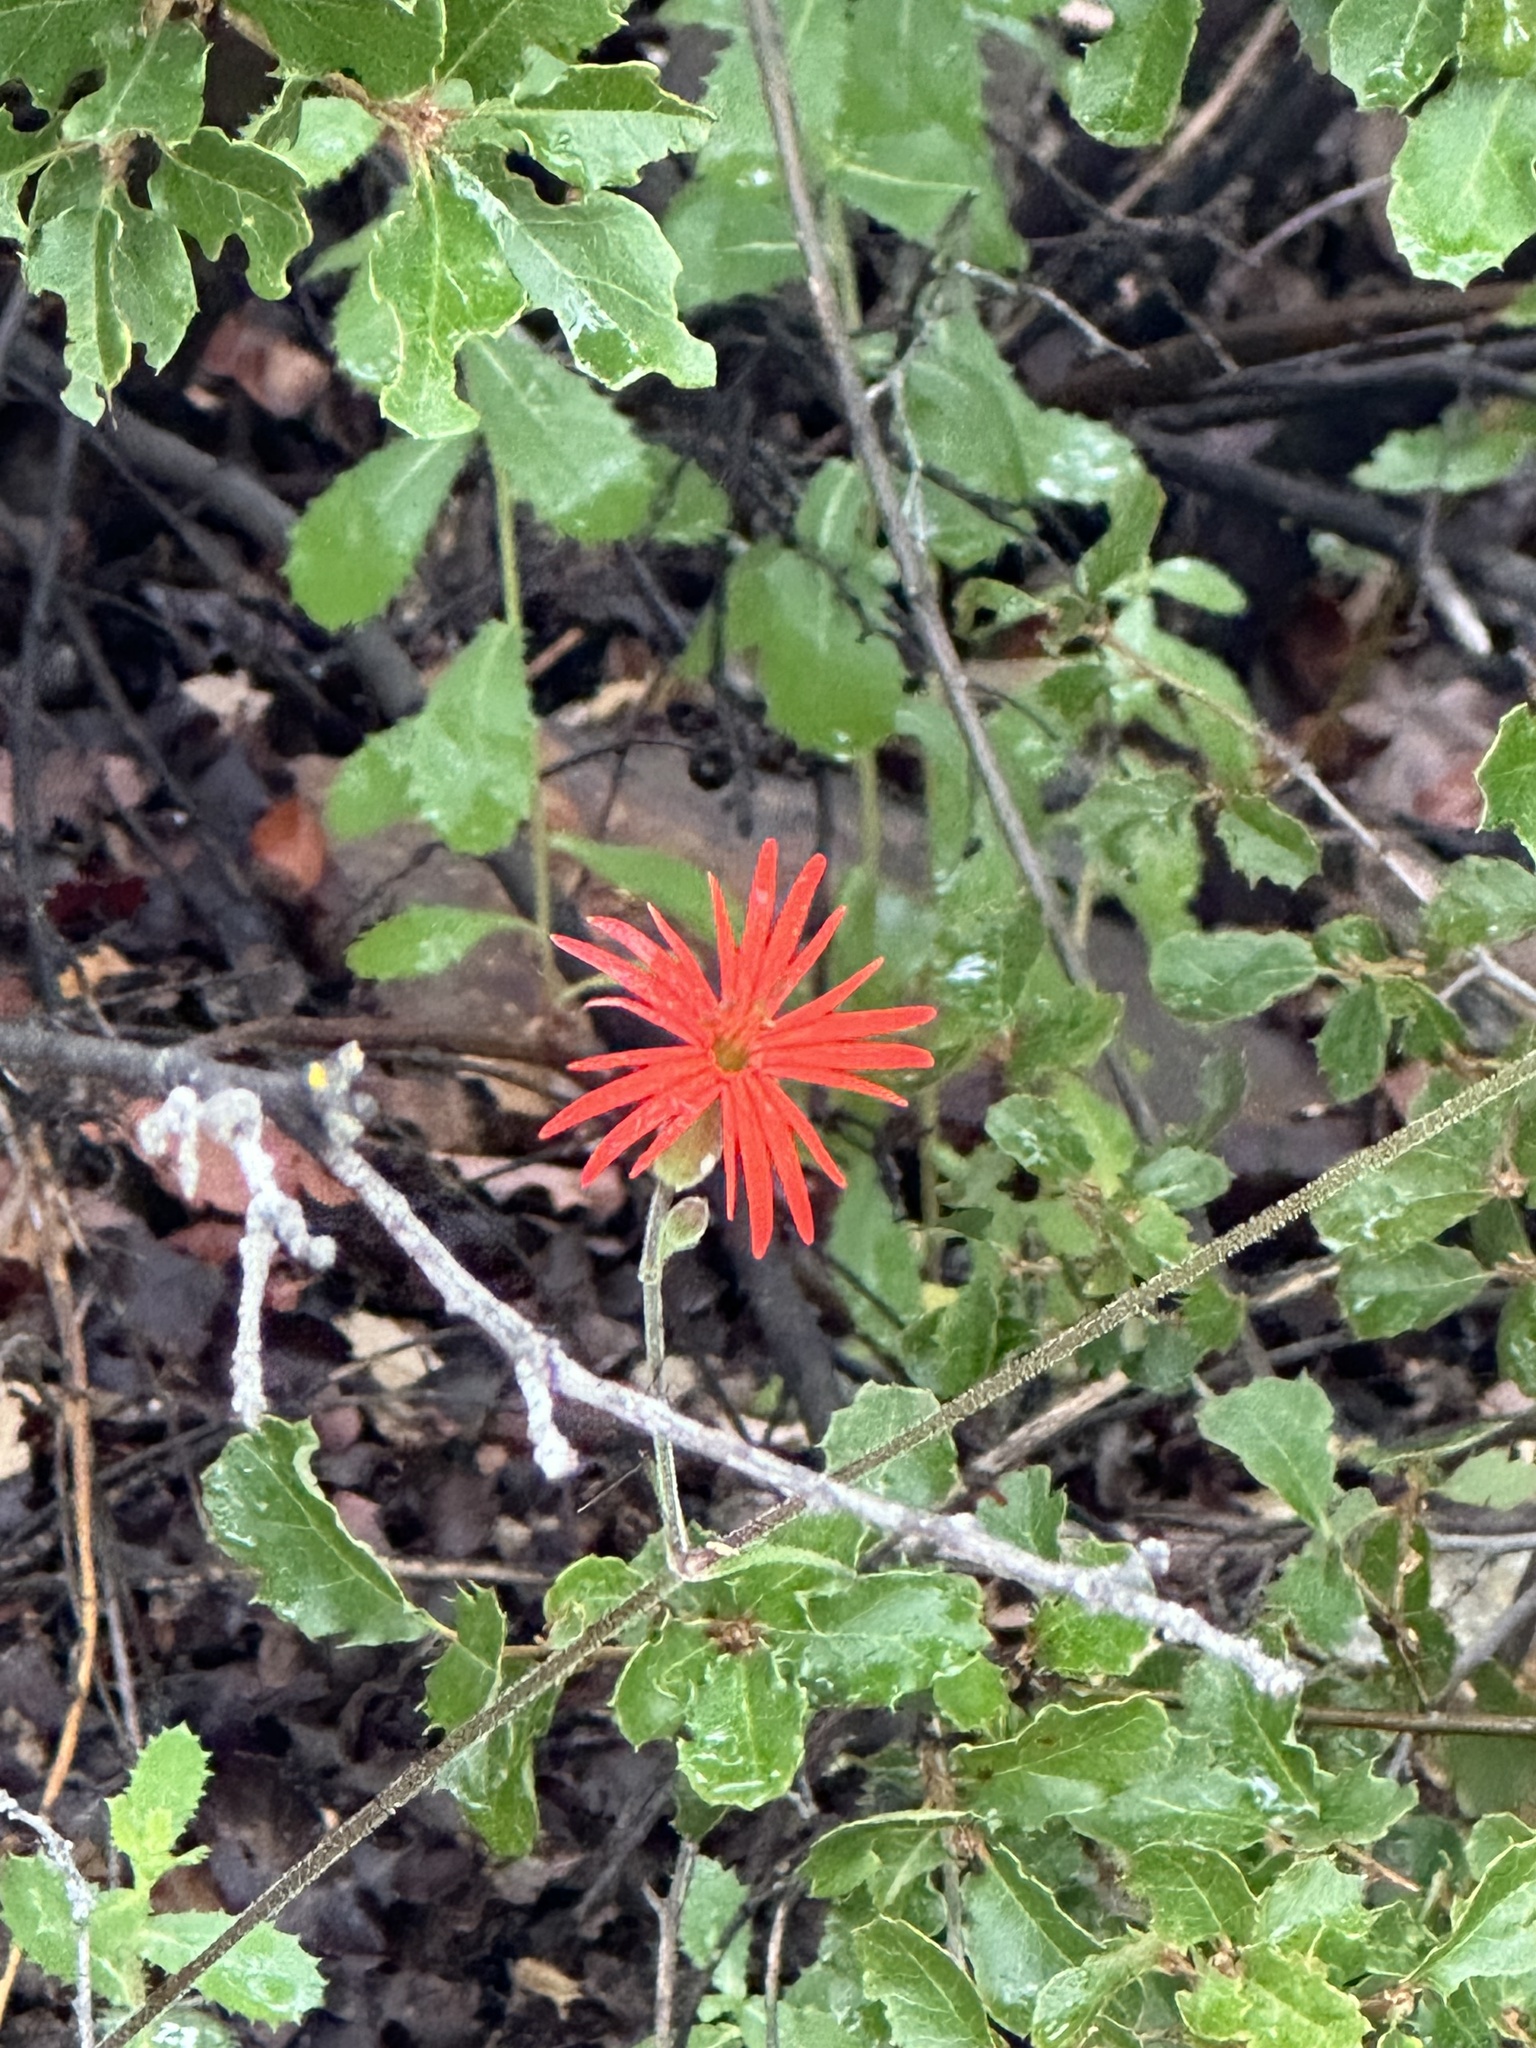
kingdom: Plantae
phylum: Tracheophyta
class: Magnoliopsida
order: Caryophyllales
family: Caryophyllaceae
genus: Silene
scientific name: Silene laciniata
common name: Indian-pink
